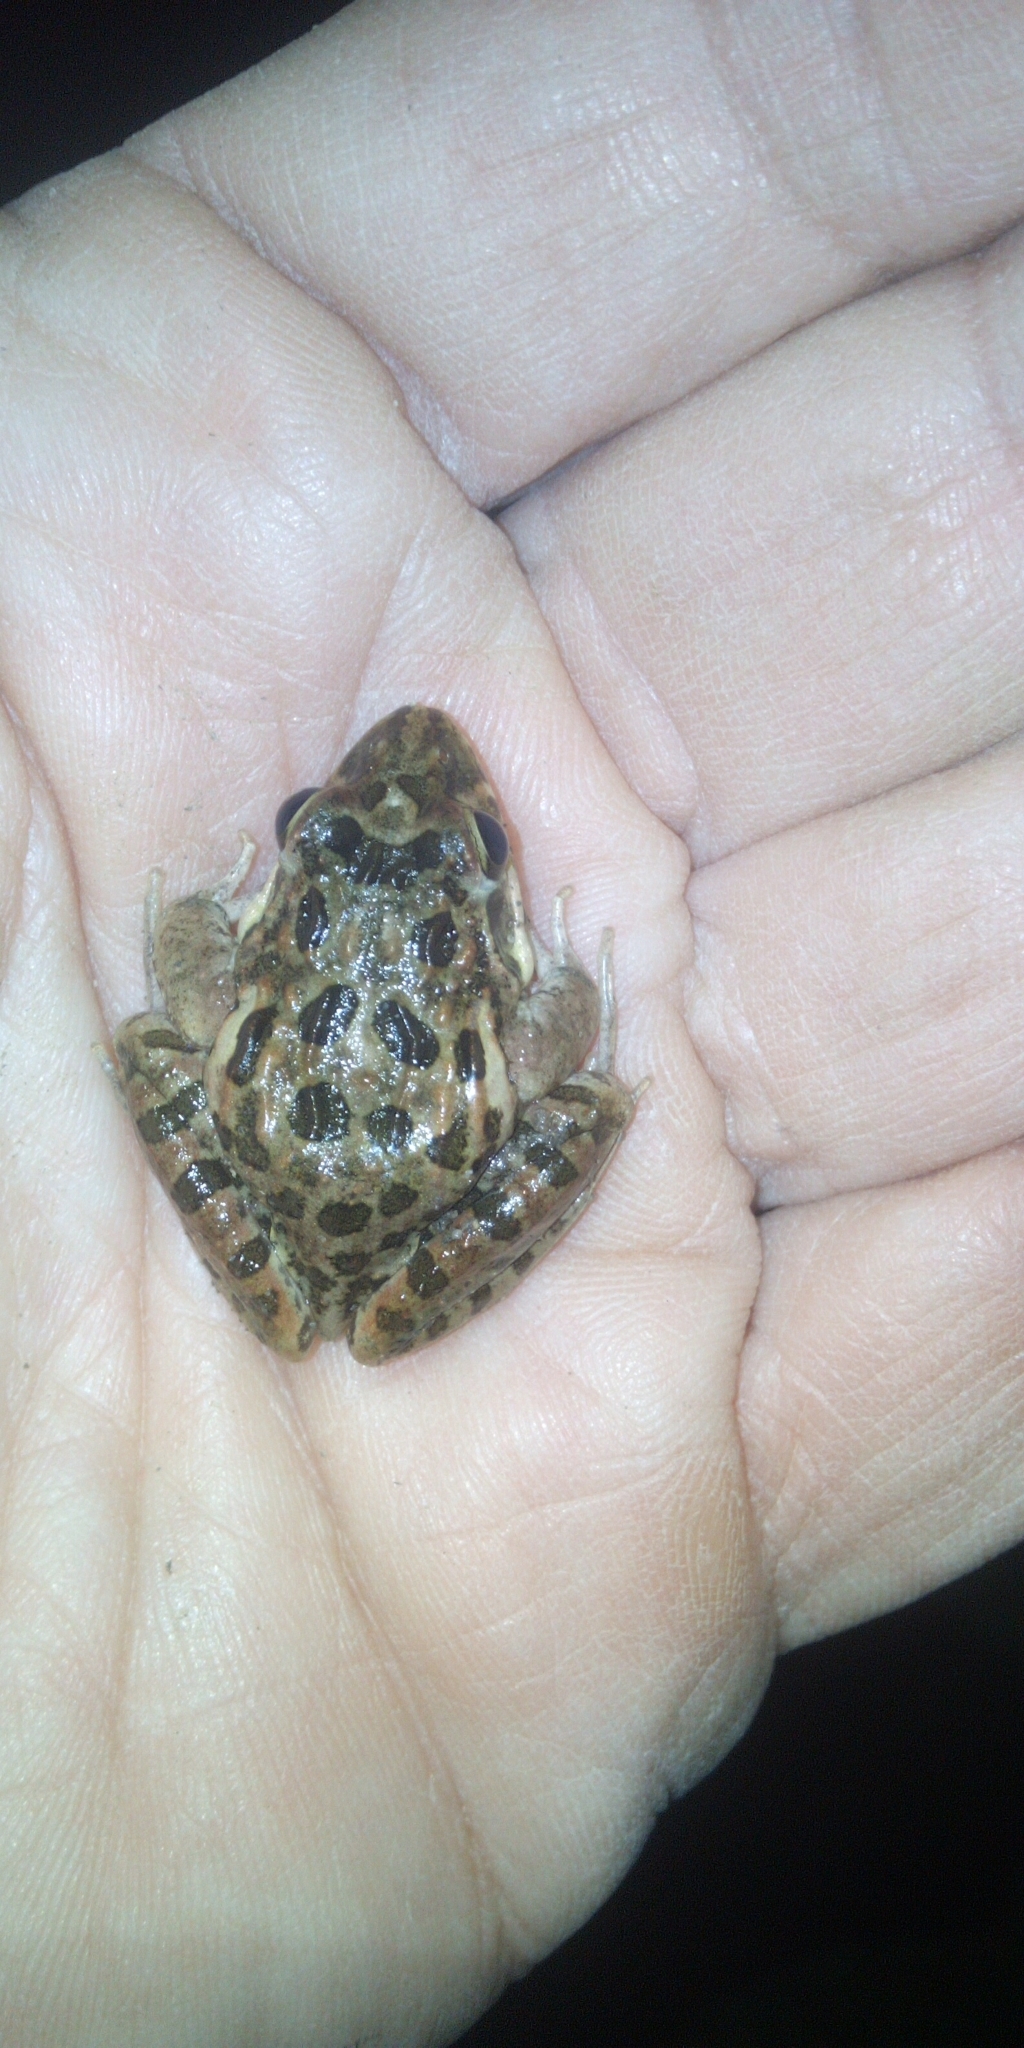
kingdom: Animalia
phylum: Chordata
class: Amphibia
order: Anura
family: Pyxicephalidae
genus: Strongylopus
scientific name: Strongylopus grayii
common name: Gray's stream frog
